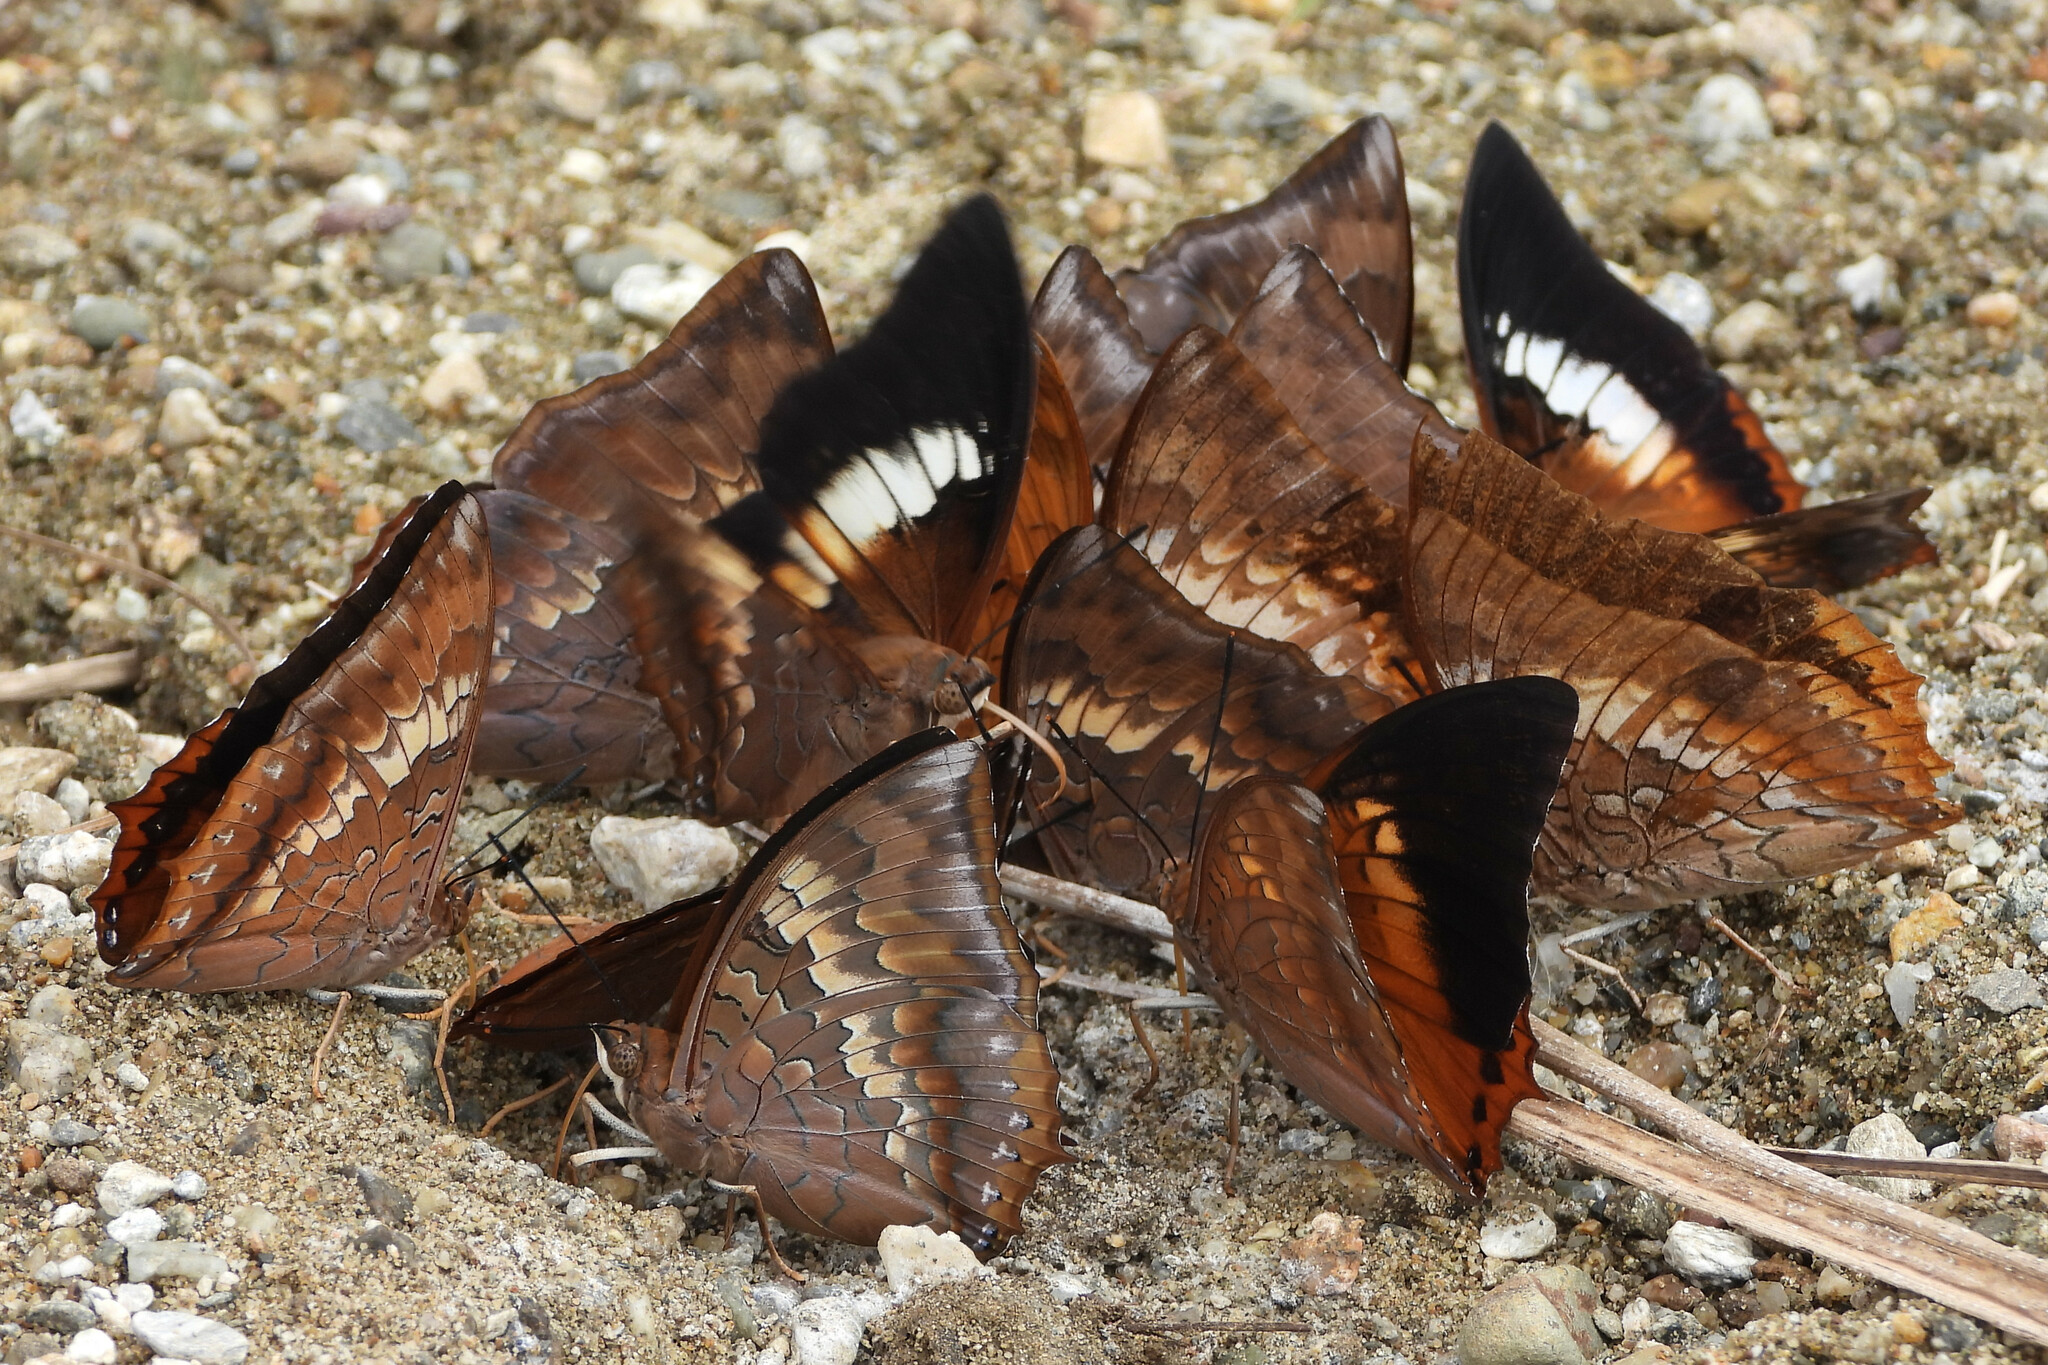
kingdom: Animalia
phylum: Arthropoda
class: Insecta
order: Lepidoptera
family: Nymphalidae
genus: Charaxes
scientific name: Charaxes bernardus
